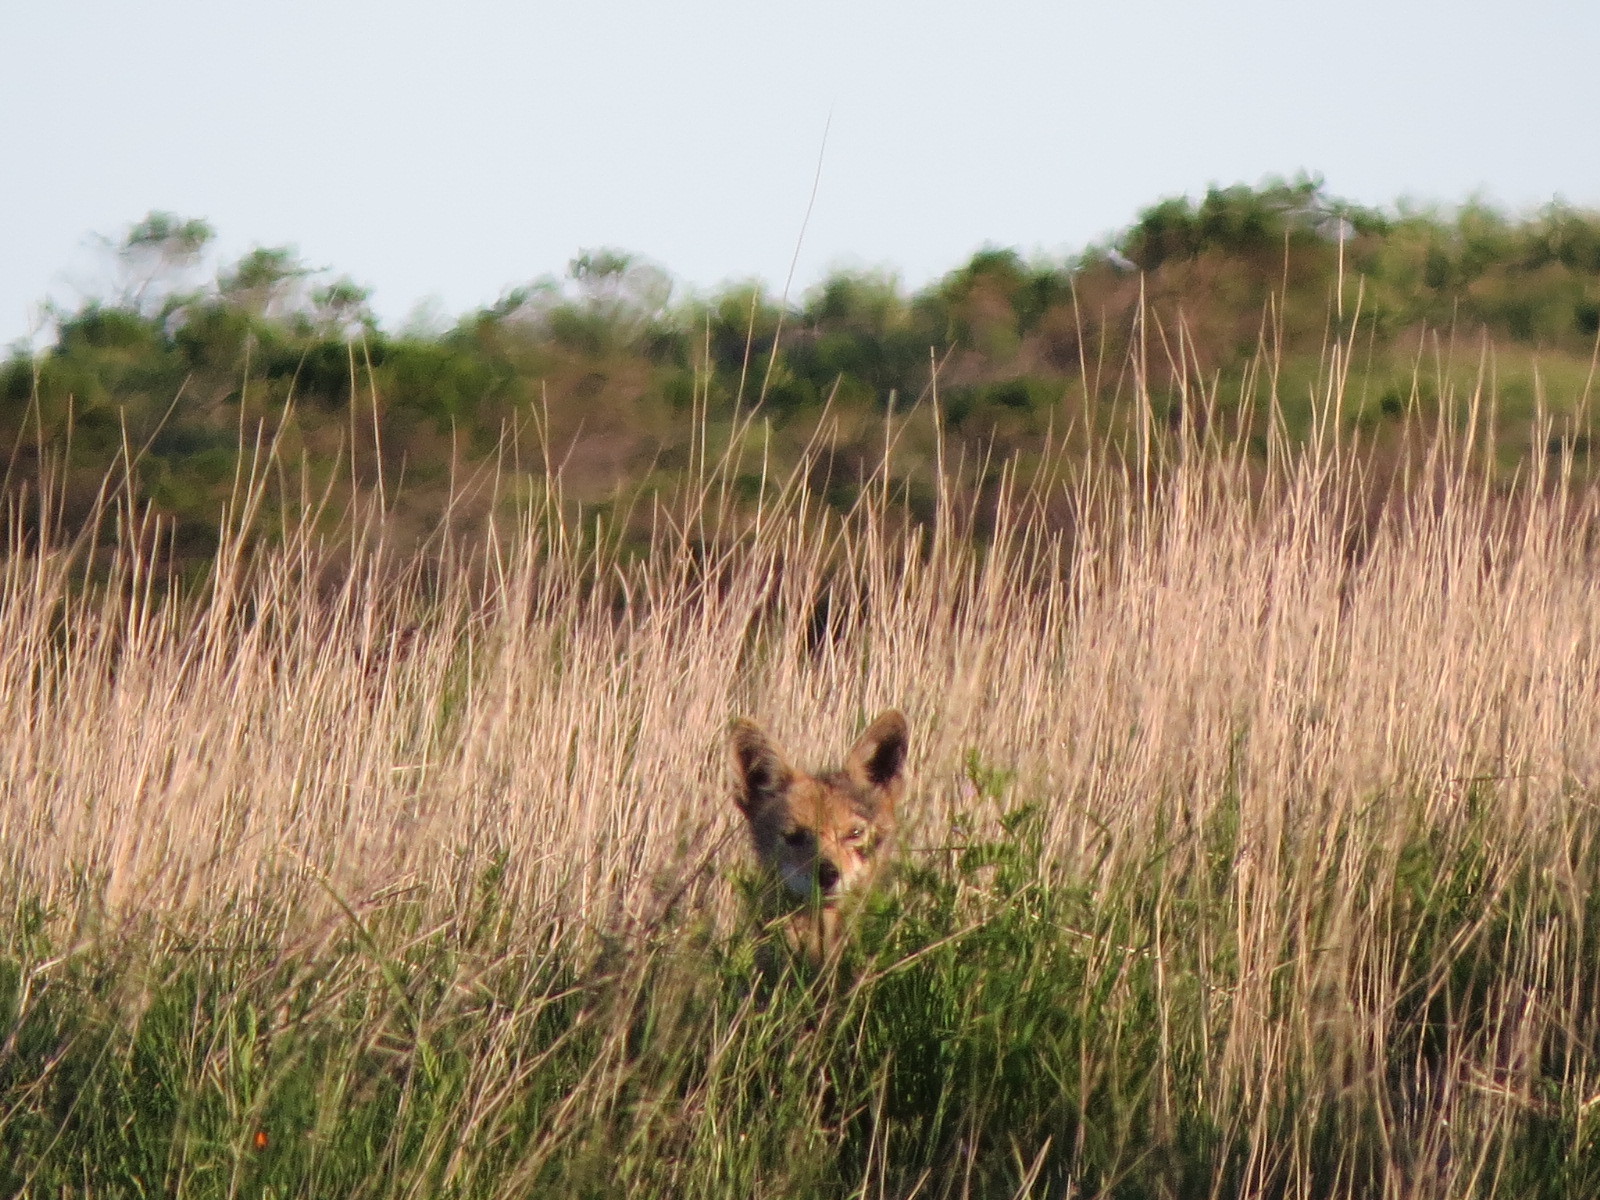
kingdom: Animalia
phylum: Chordata
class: Mammalia
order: Carnivora
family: Canidae
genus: Canis
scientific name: Canis latrans
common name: Coyote
